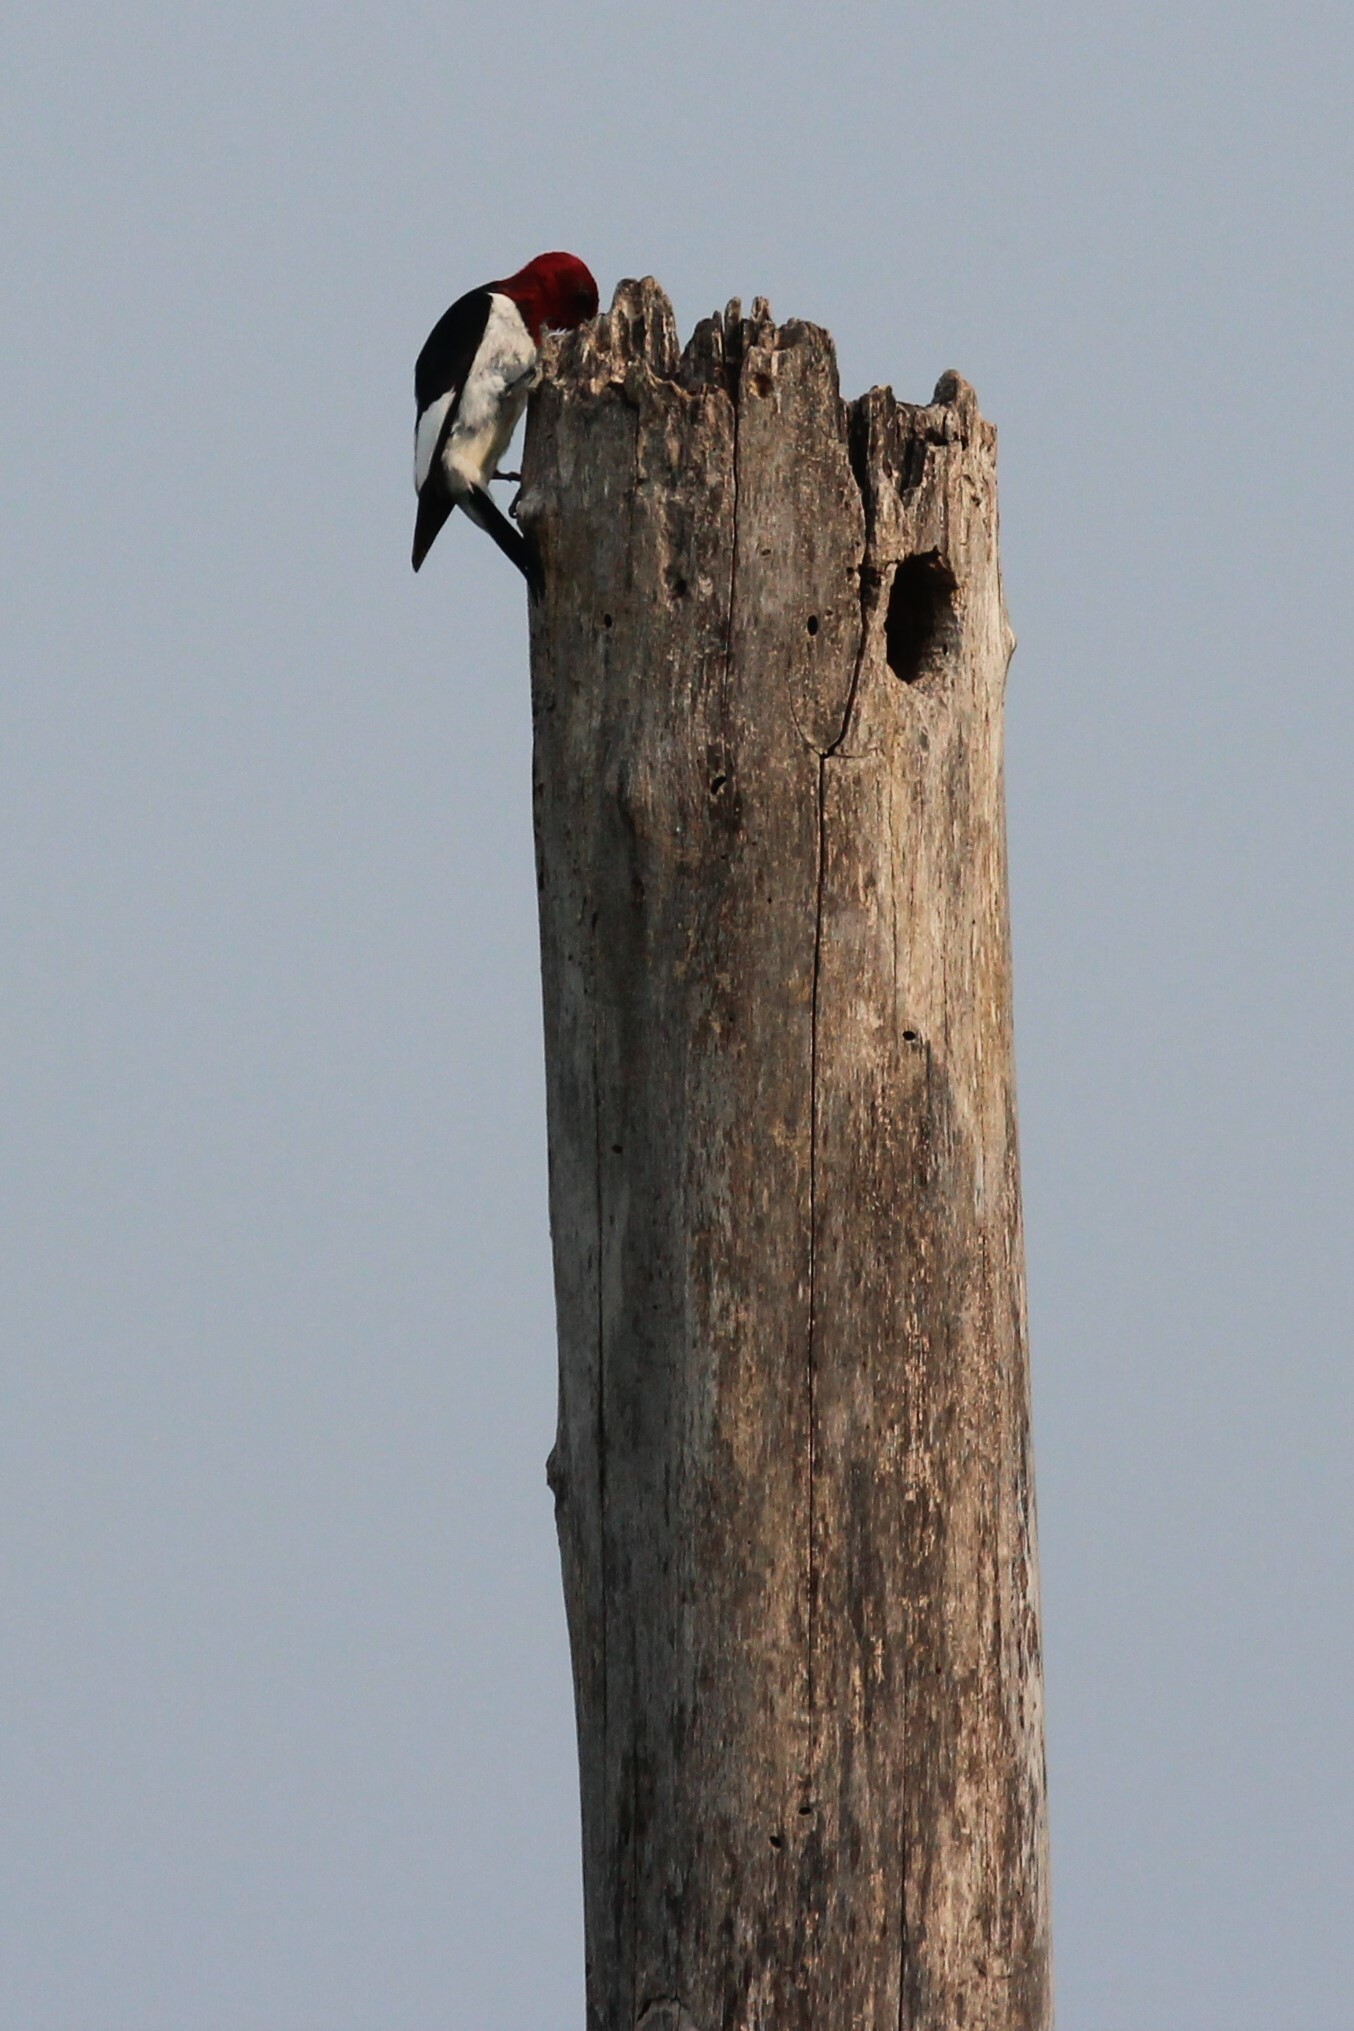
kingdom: Animalia
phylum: Chordata
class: Aves
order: Piciformes
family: Picidae
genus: Melanerpes
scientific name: Melanerpes erythrocephalus
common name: Red-headed woodpecker
